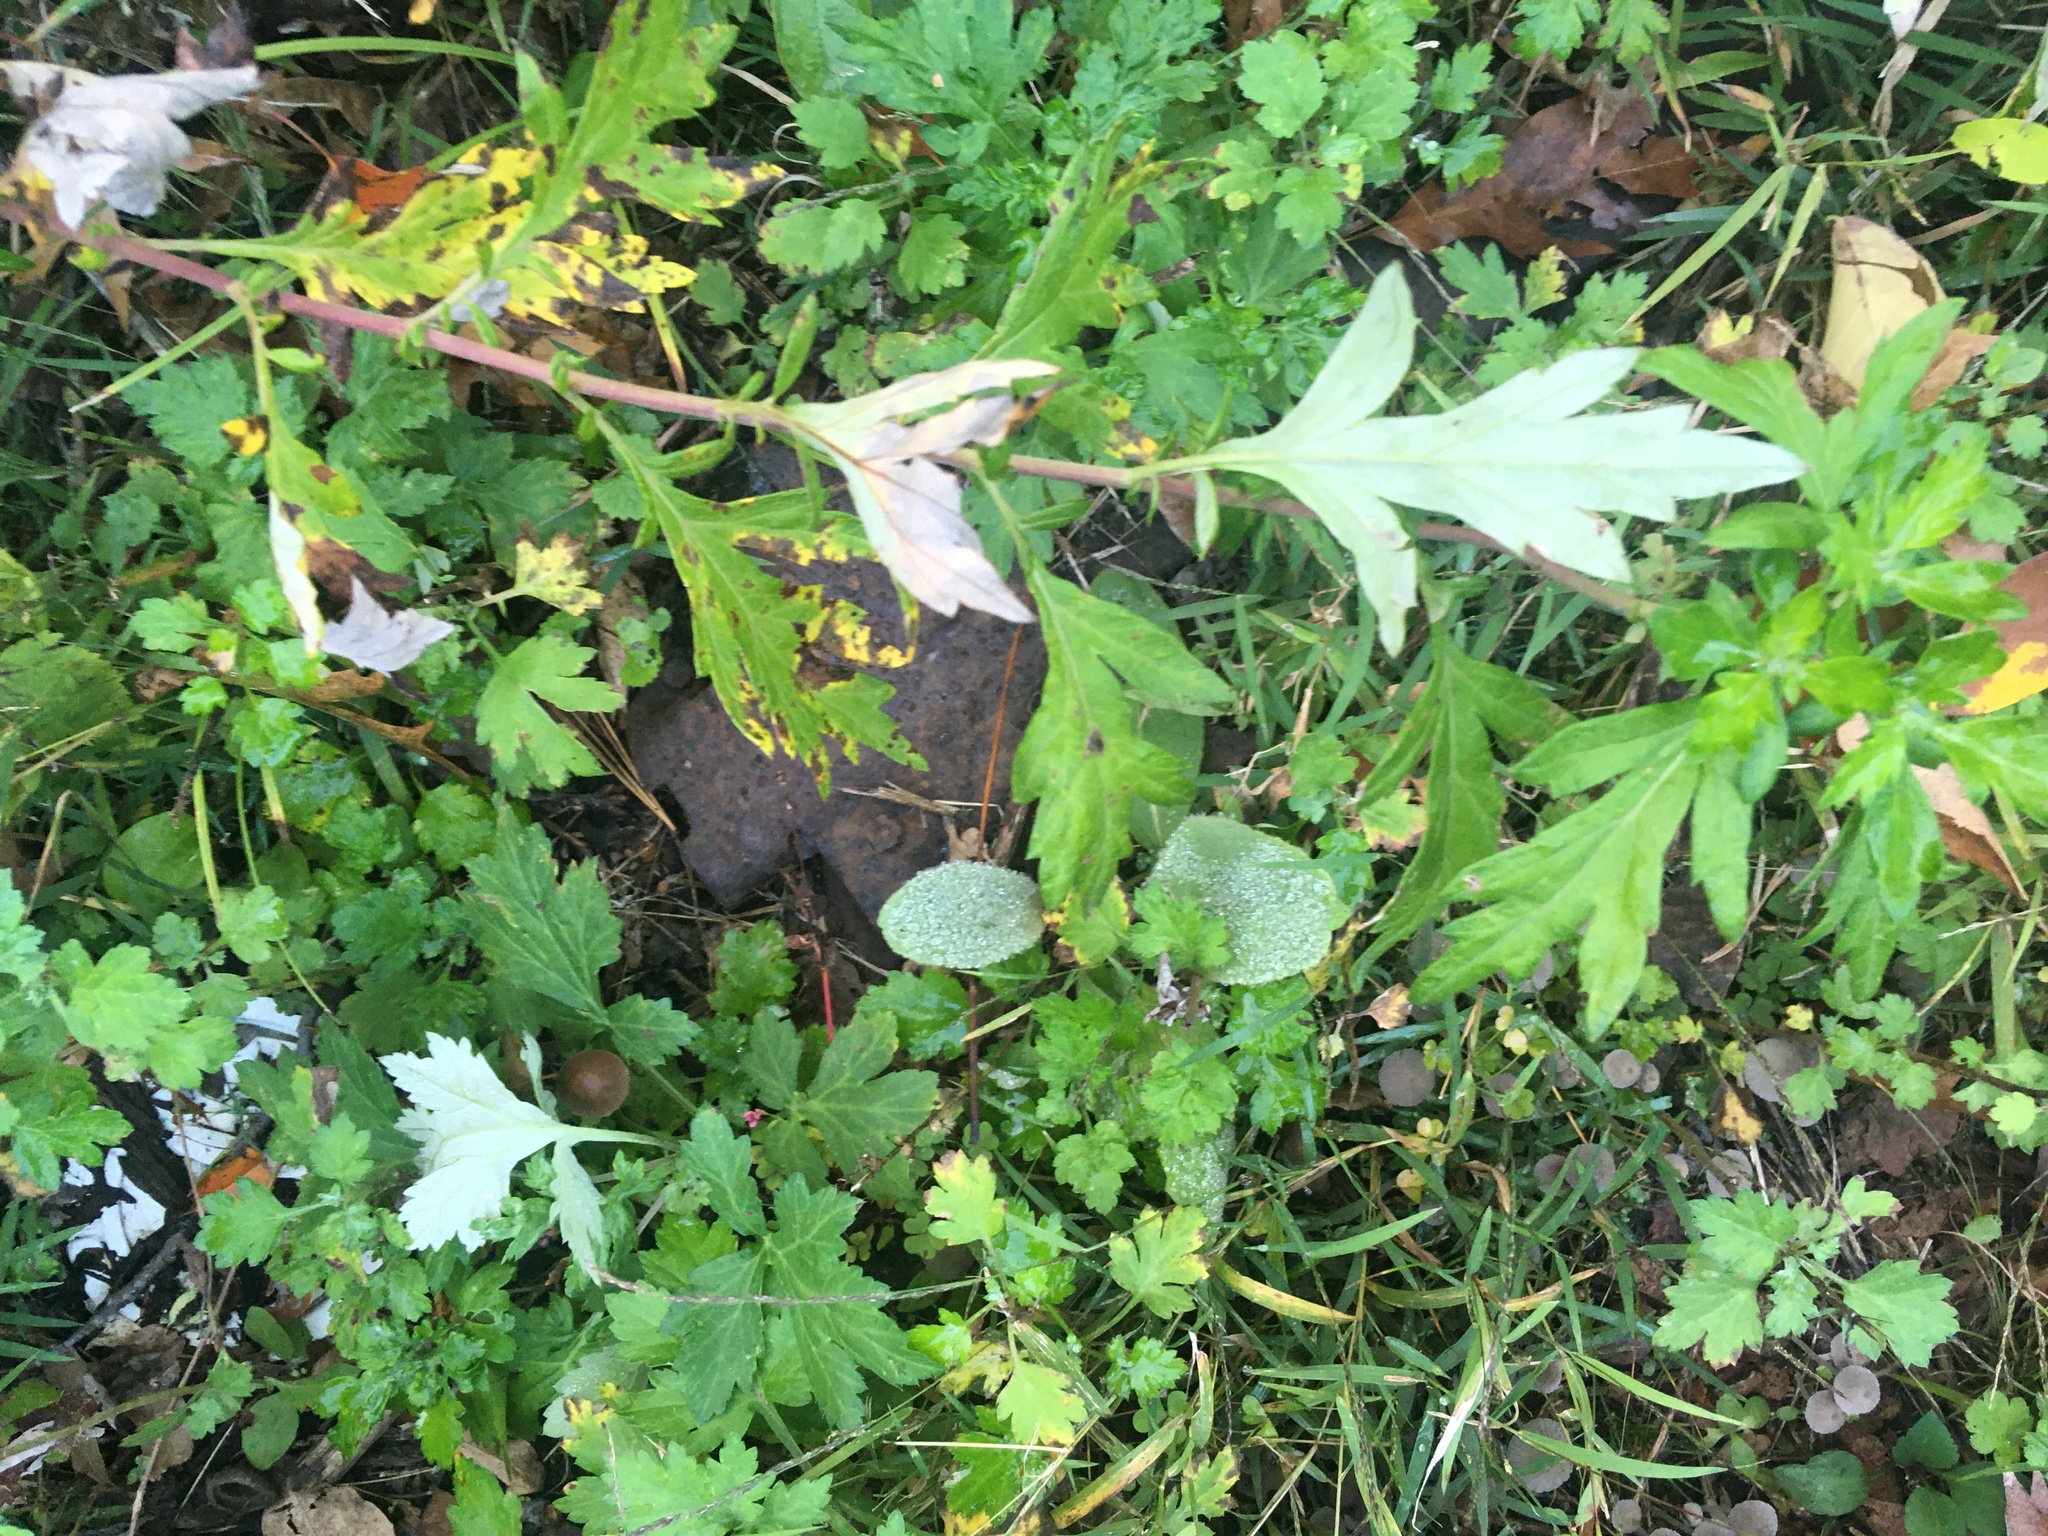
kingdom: Plantae
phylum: Tracheophyta
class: Magnoliopsida
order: Asterales
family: Asteraceae
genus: Artemisia
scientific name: Artemisia vulgaris
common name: Mugwort
